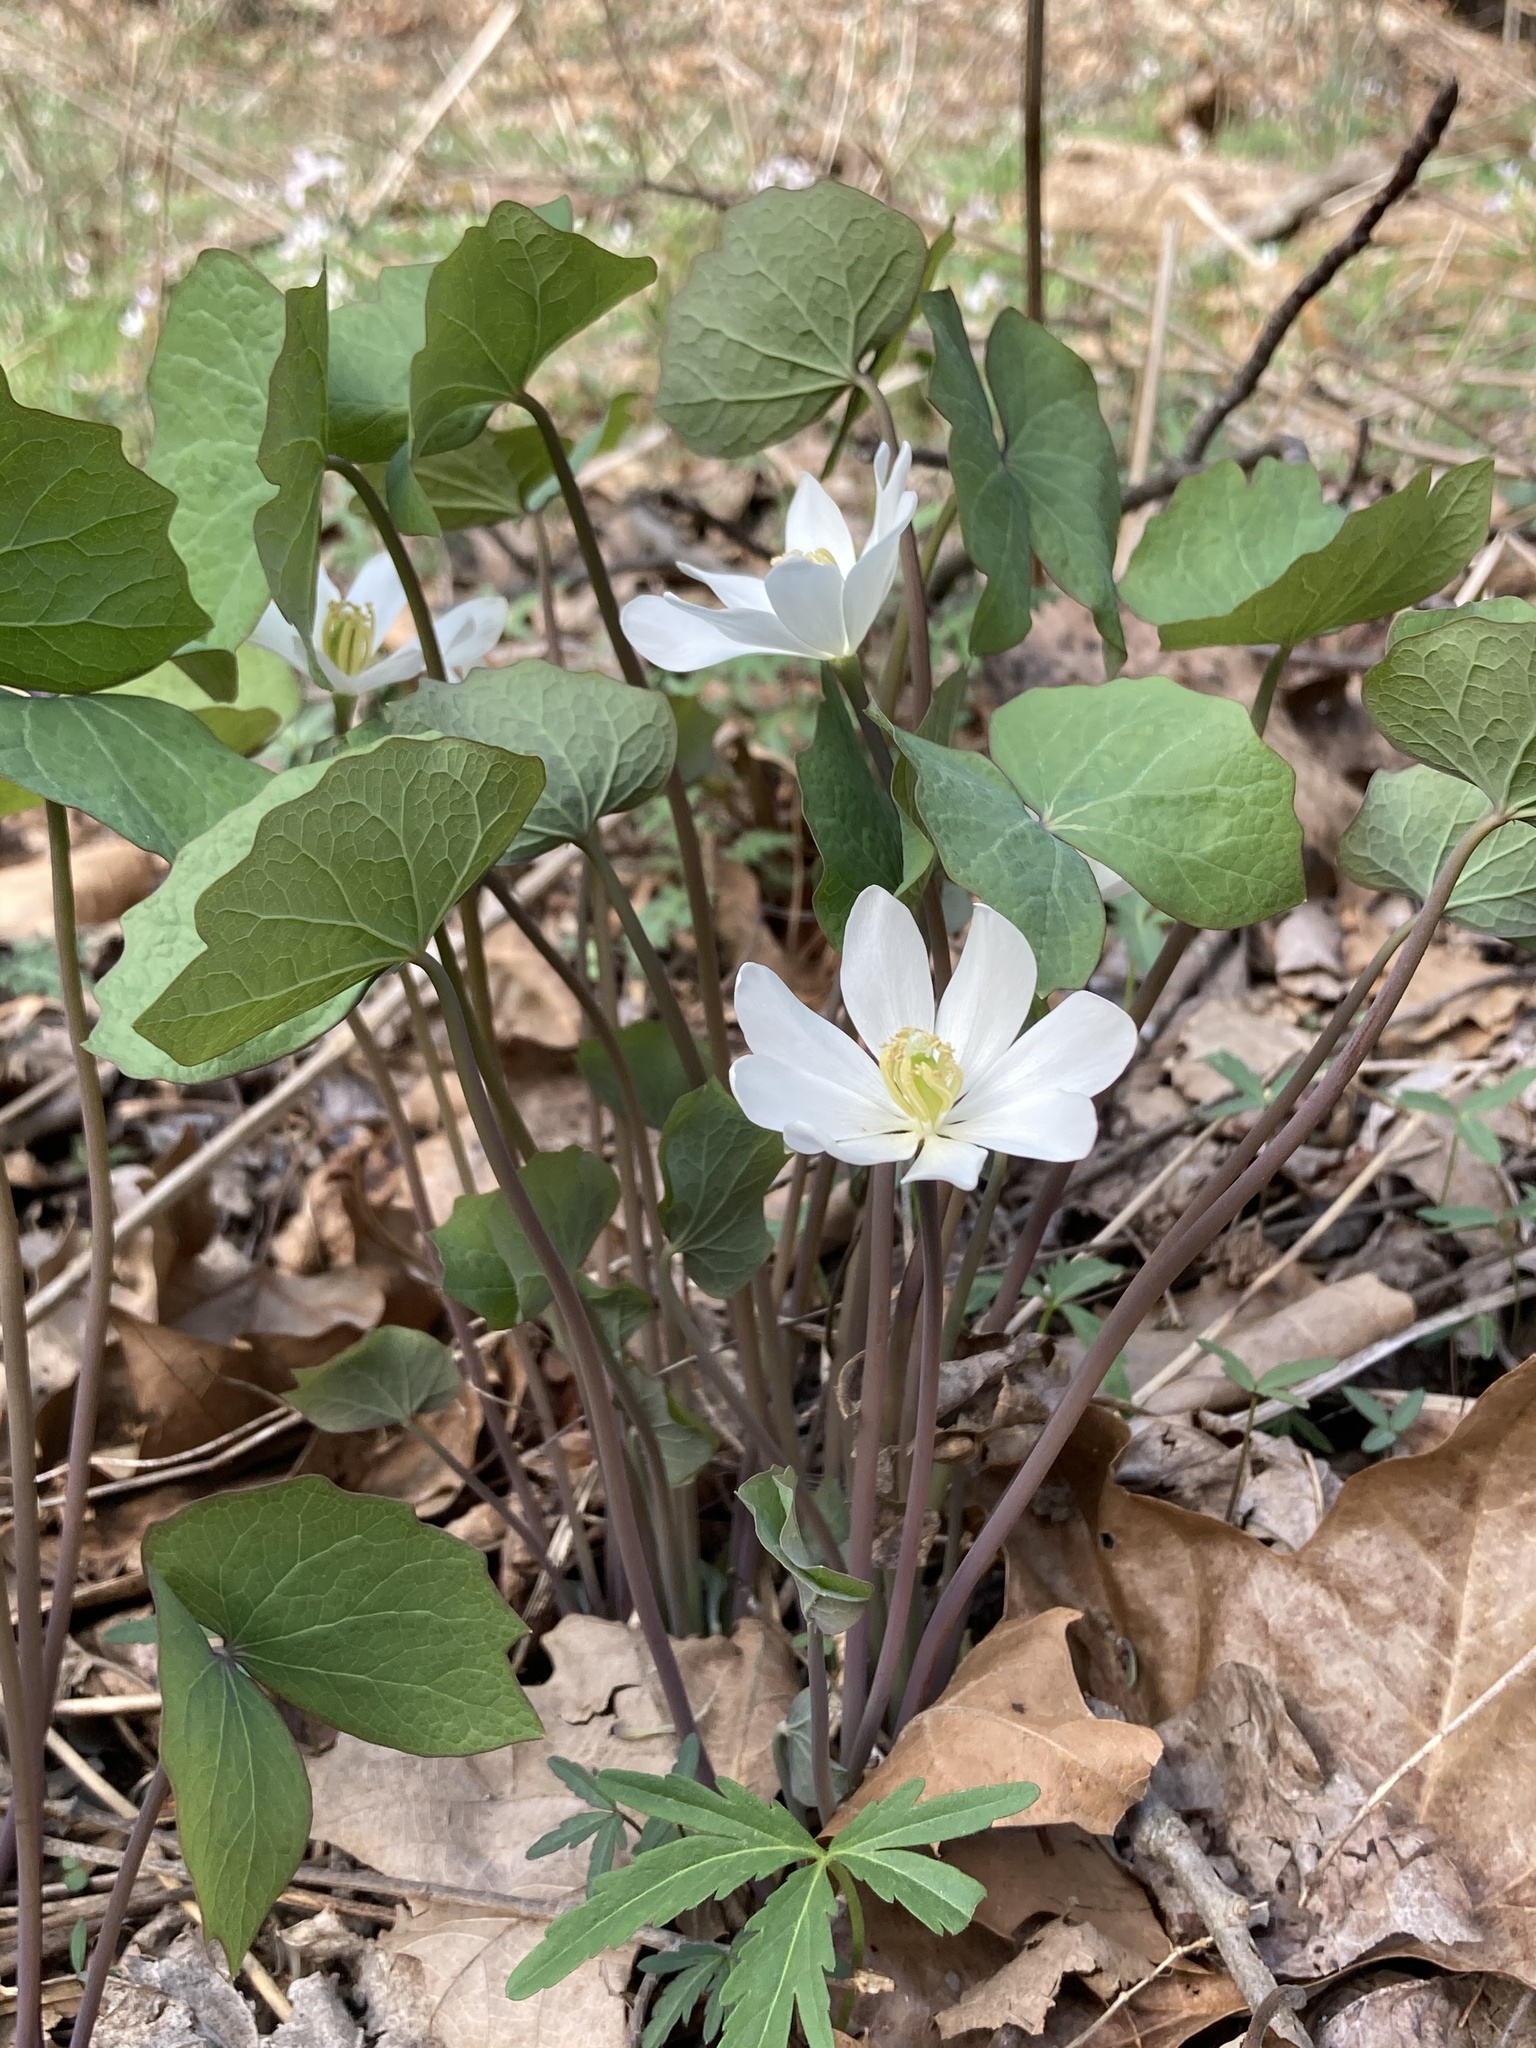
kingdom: Plantae
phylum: Tracheophyta
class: Magnoliopsida
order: Ranunculales
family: Berberidaceae
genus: Jeffersonia
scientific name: Jeffersonia diphylla
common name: Rheumatism-root
